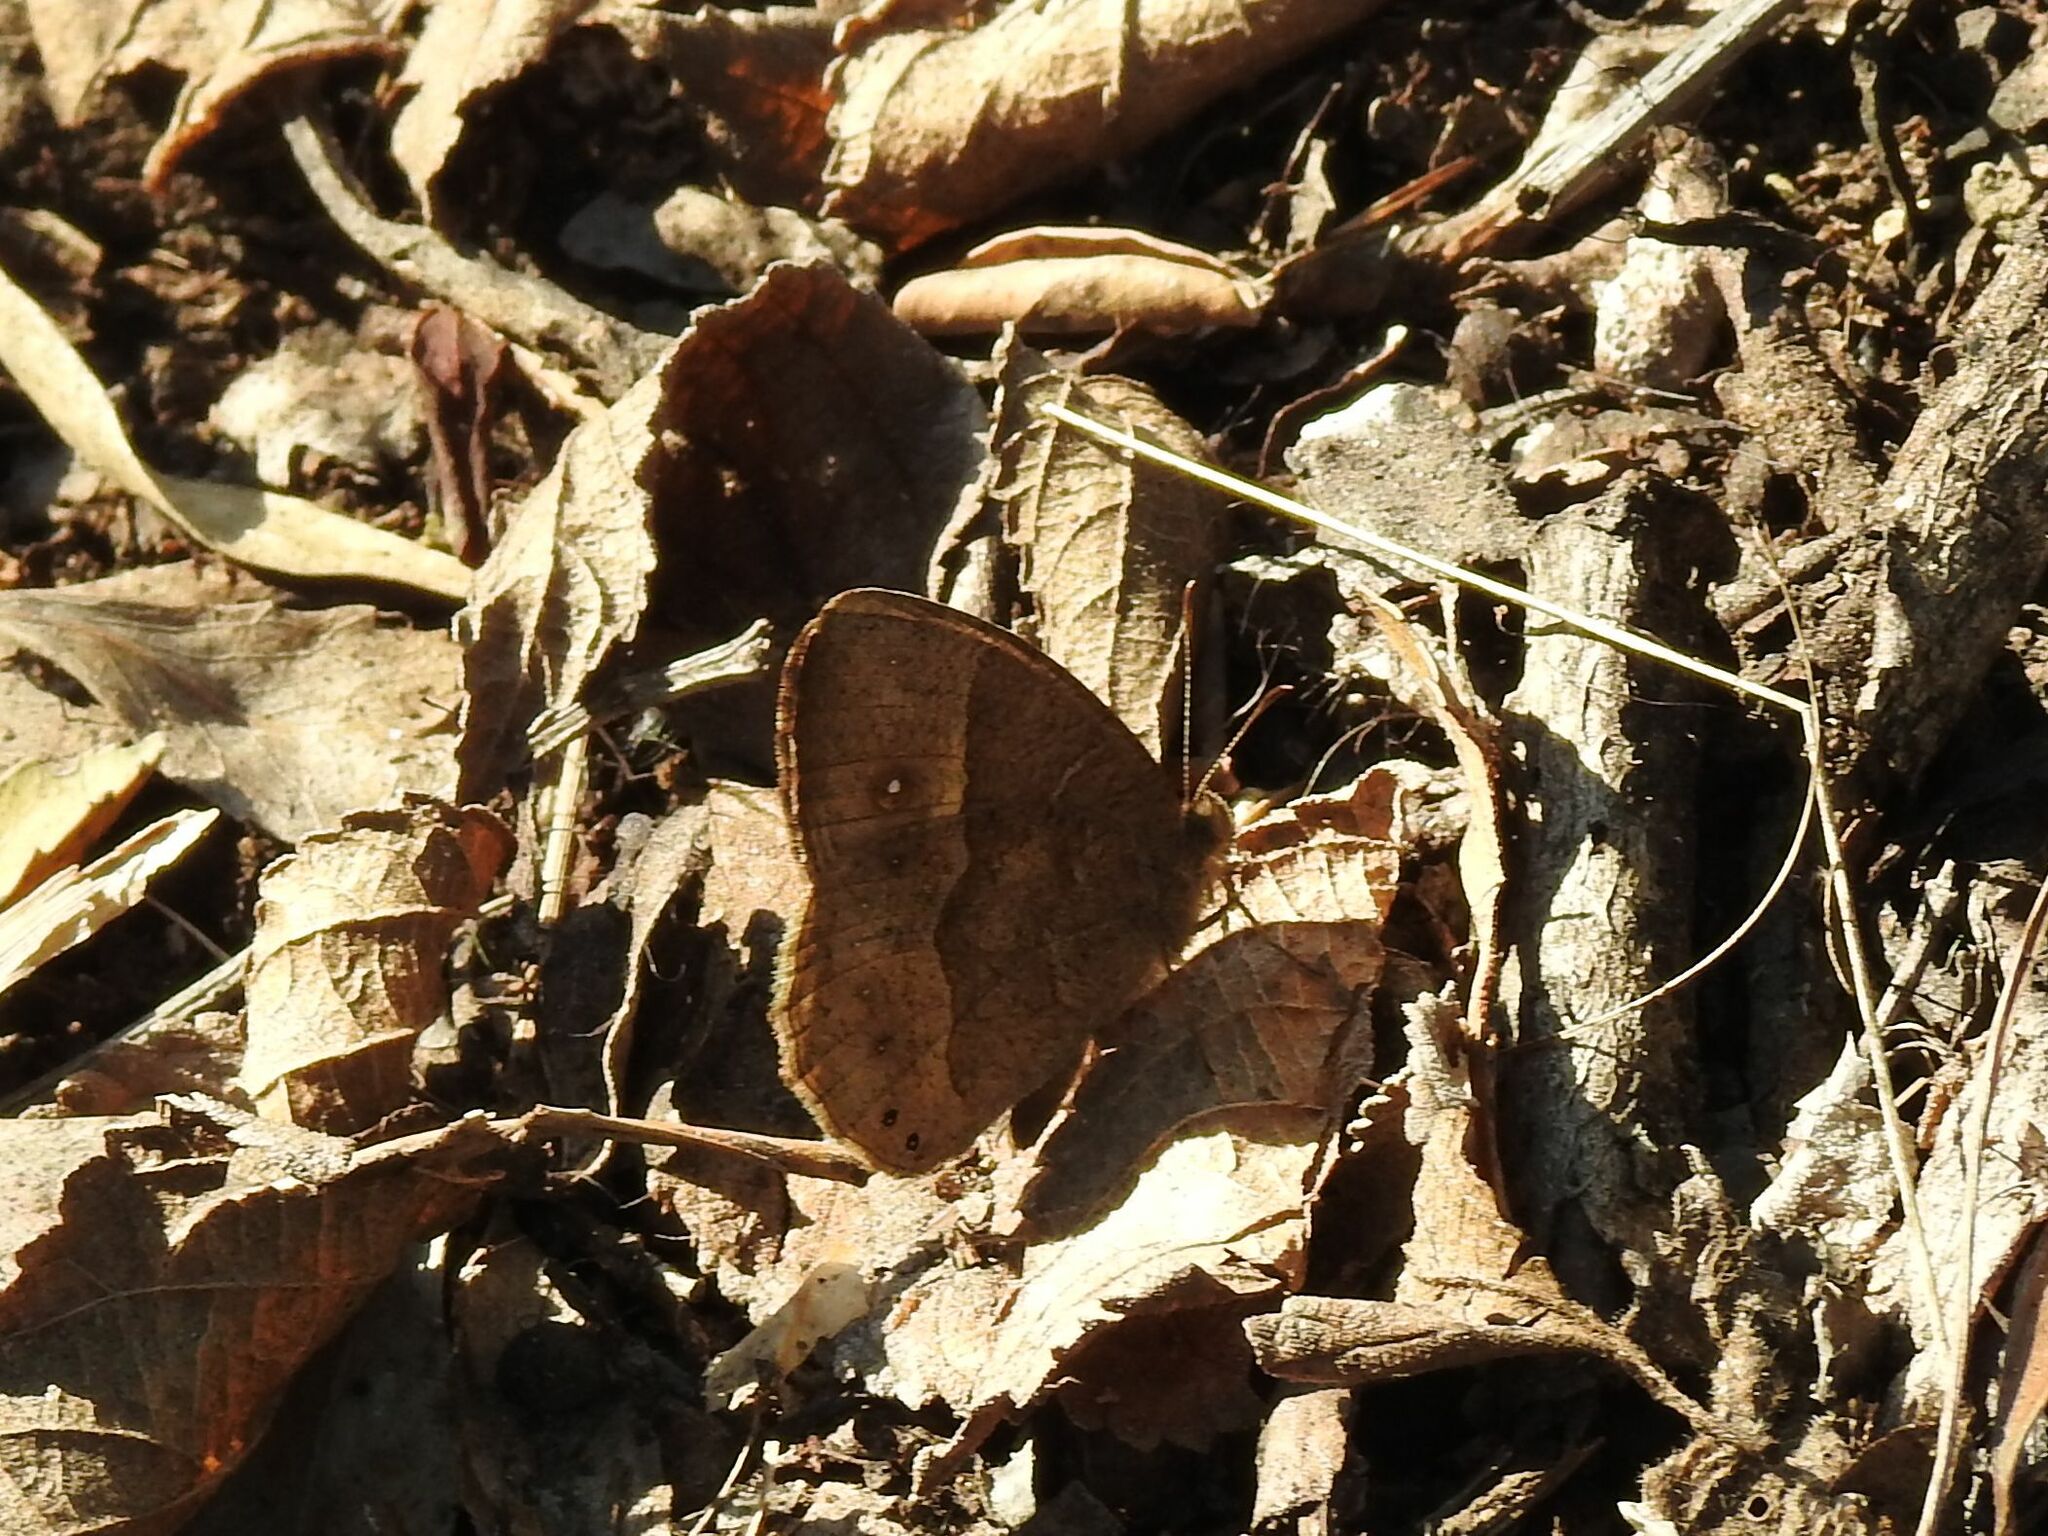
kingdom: Animalia
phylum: Arthropoda
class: Insecta
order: Lepidoptera
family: Nymphalidae
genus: Mycalesis
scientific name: Mycalesis anynana
